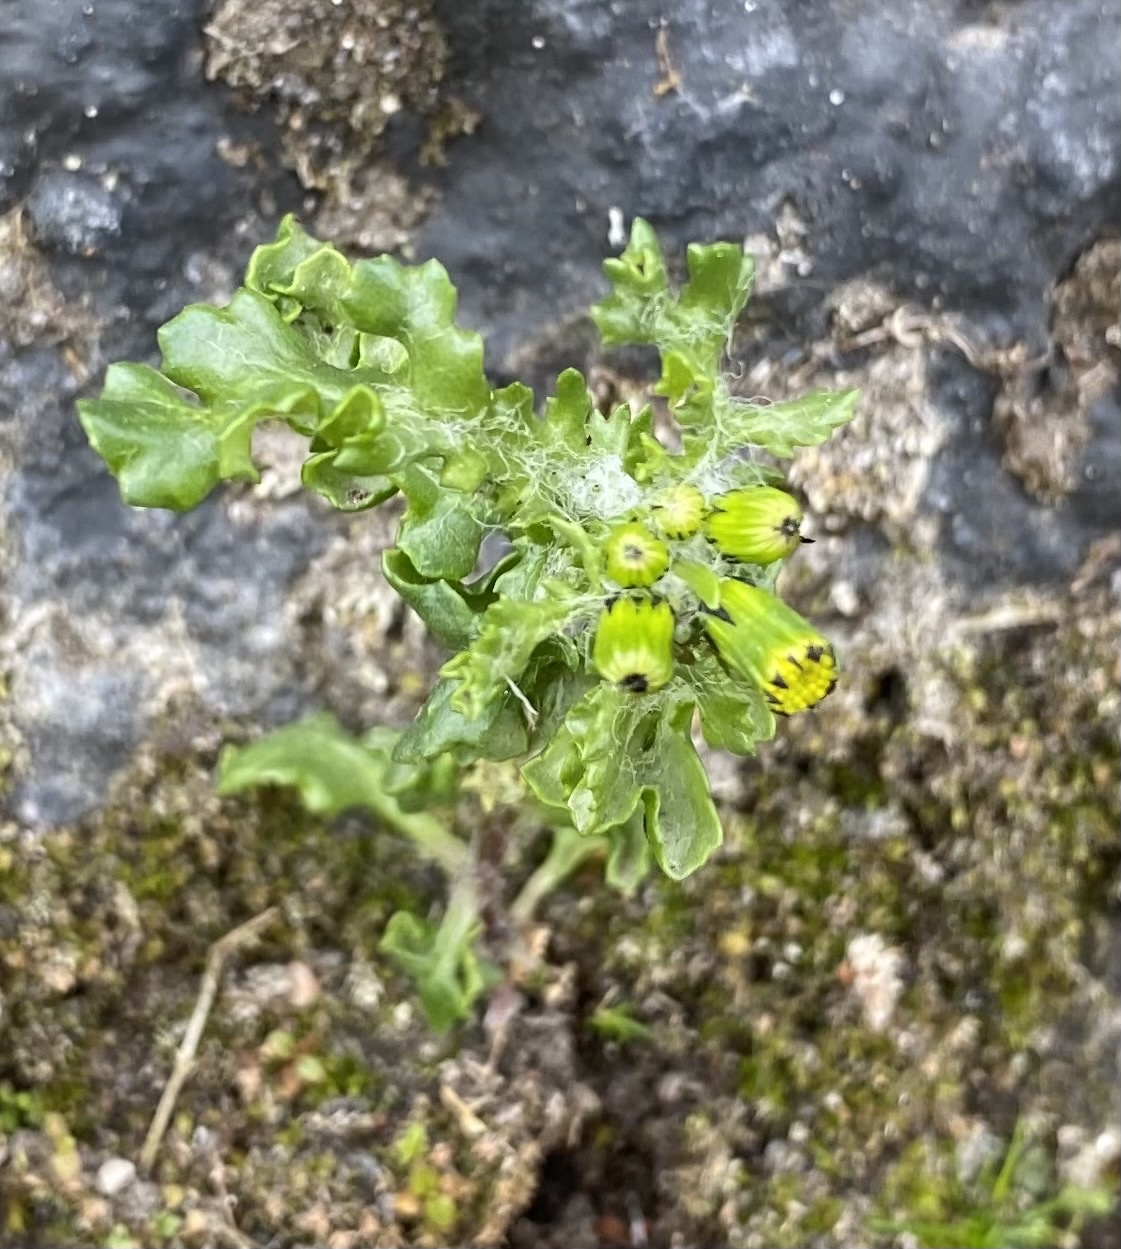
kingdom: Plantae
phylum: Tracheophyta
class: Magnoliopsida
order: Asterales
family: Asteraceae
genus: Senecio
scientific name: Senecio vulgaris
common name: Old-man-in-the-spring
